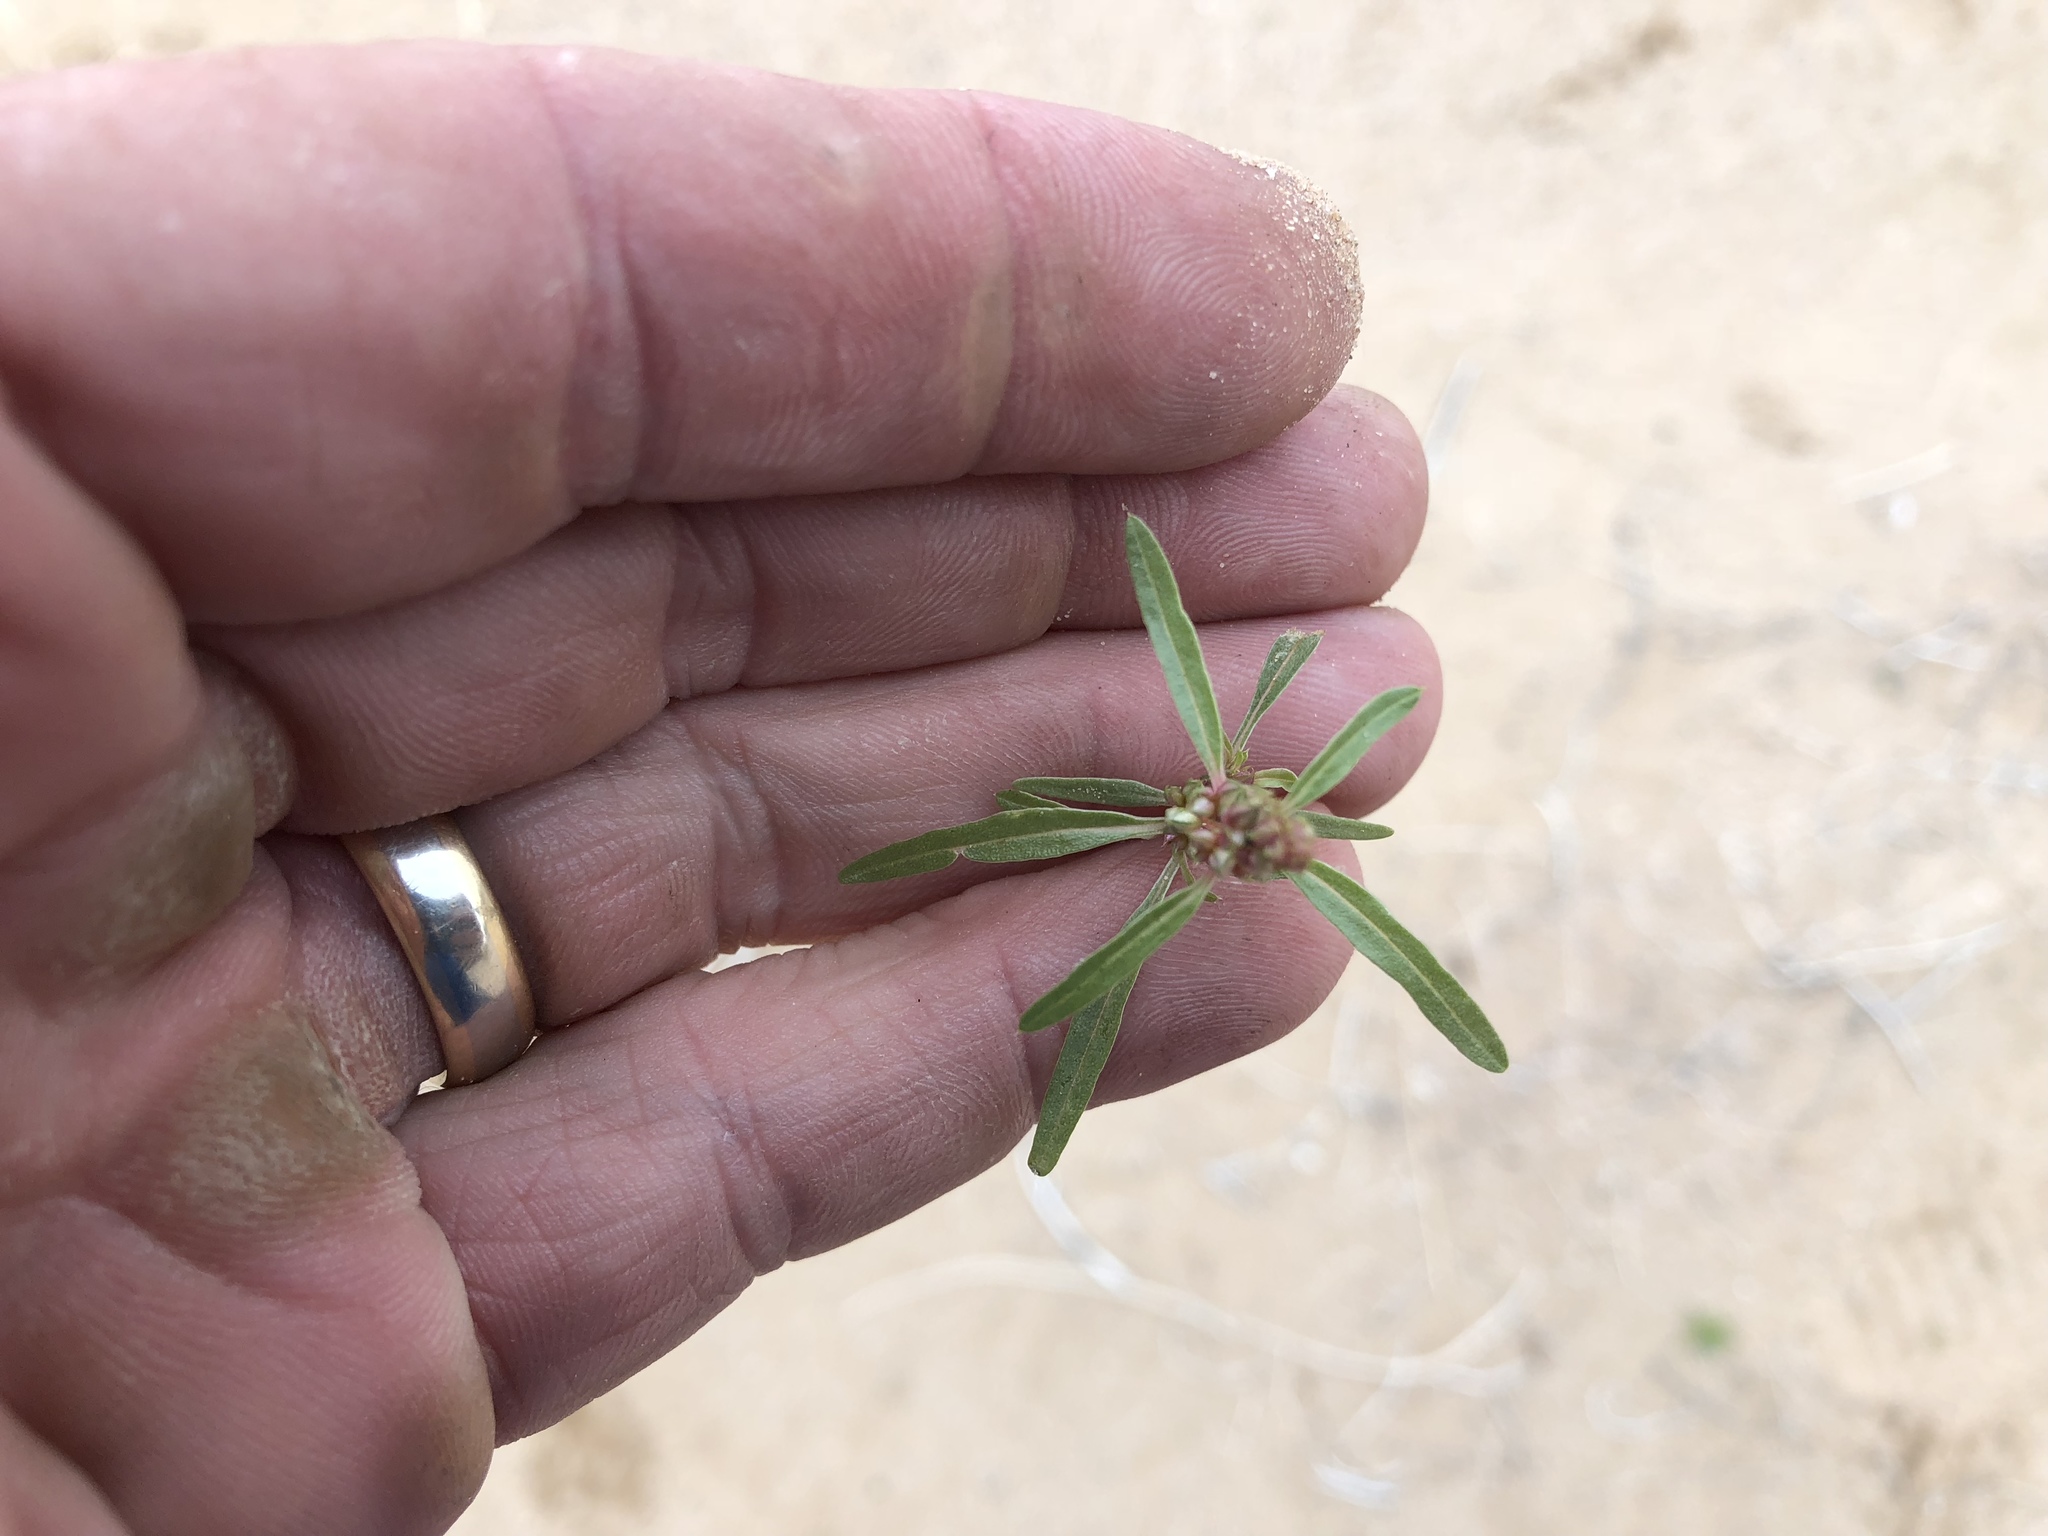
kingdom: Plantae
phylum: Tracheophyta
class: Magnoliopsida
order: Caryophyllales
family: Amaranthaceae
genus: Amaranthus
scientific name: Amaranthus acanthochiton
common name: Greenstripe
